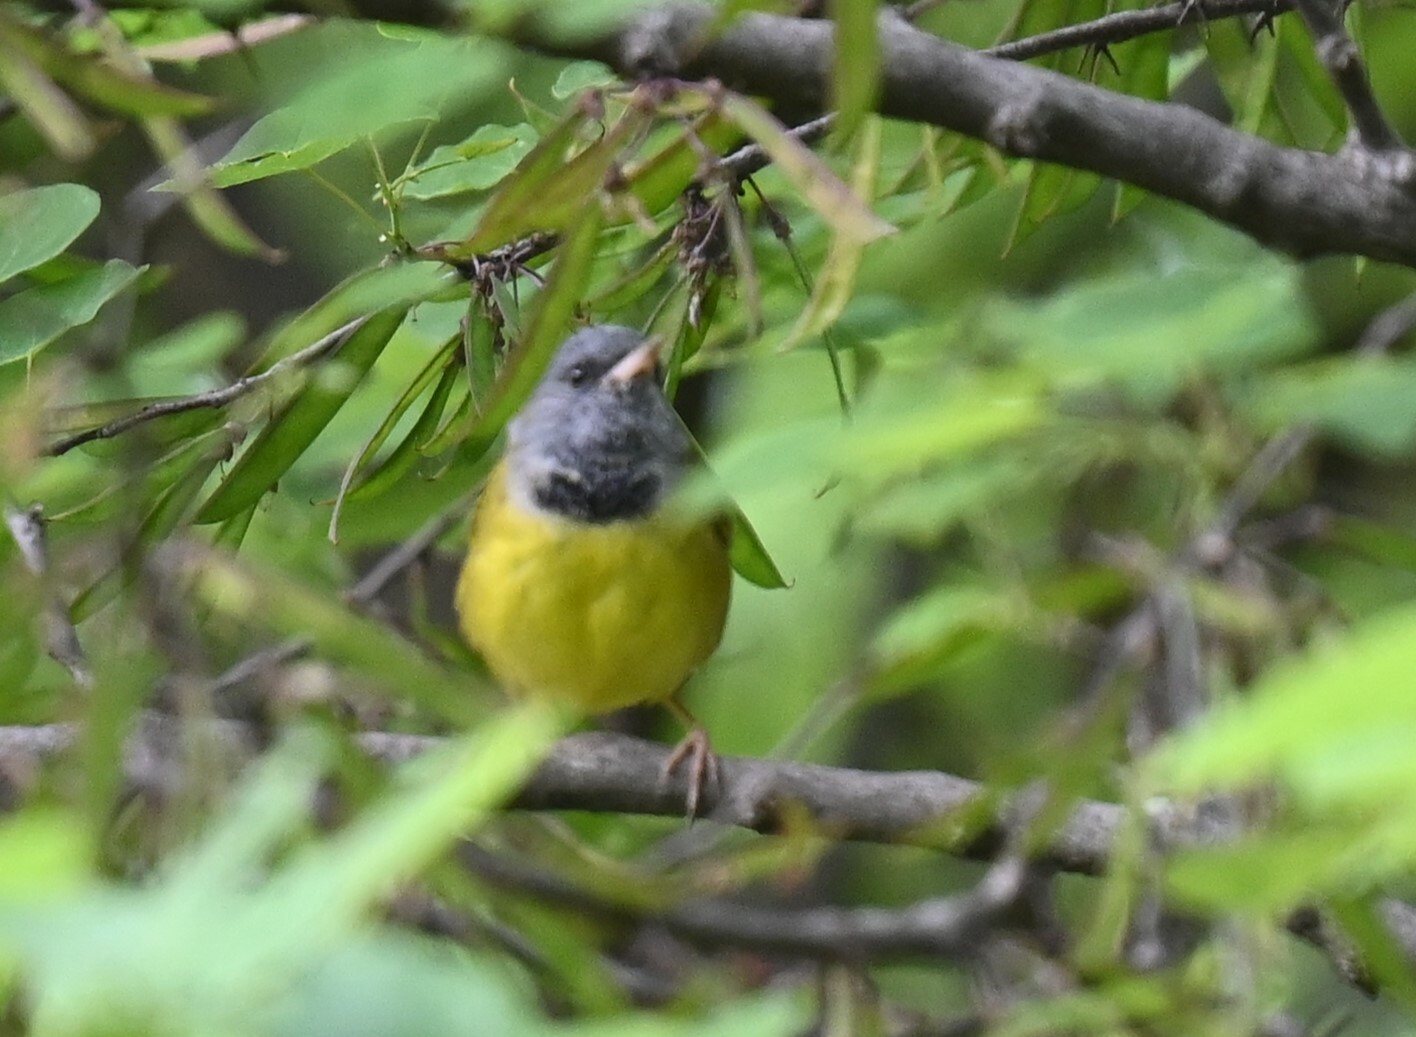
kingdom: Animalia
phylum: Chordata
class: Aves
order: Passeriformes
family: Parulidae
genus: Geothlypis
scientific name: Geothlypis philadelphia
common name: Mourning warbler
